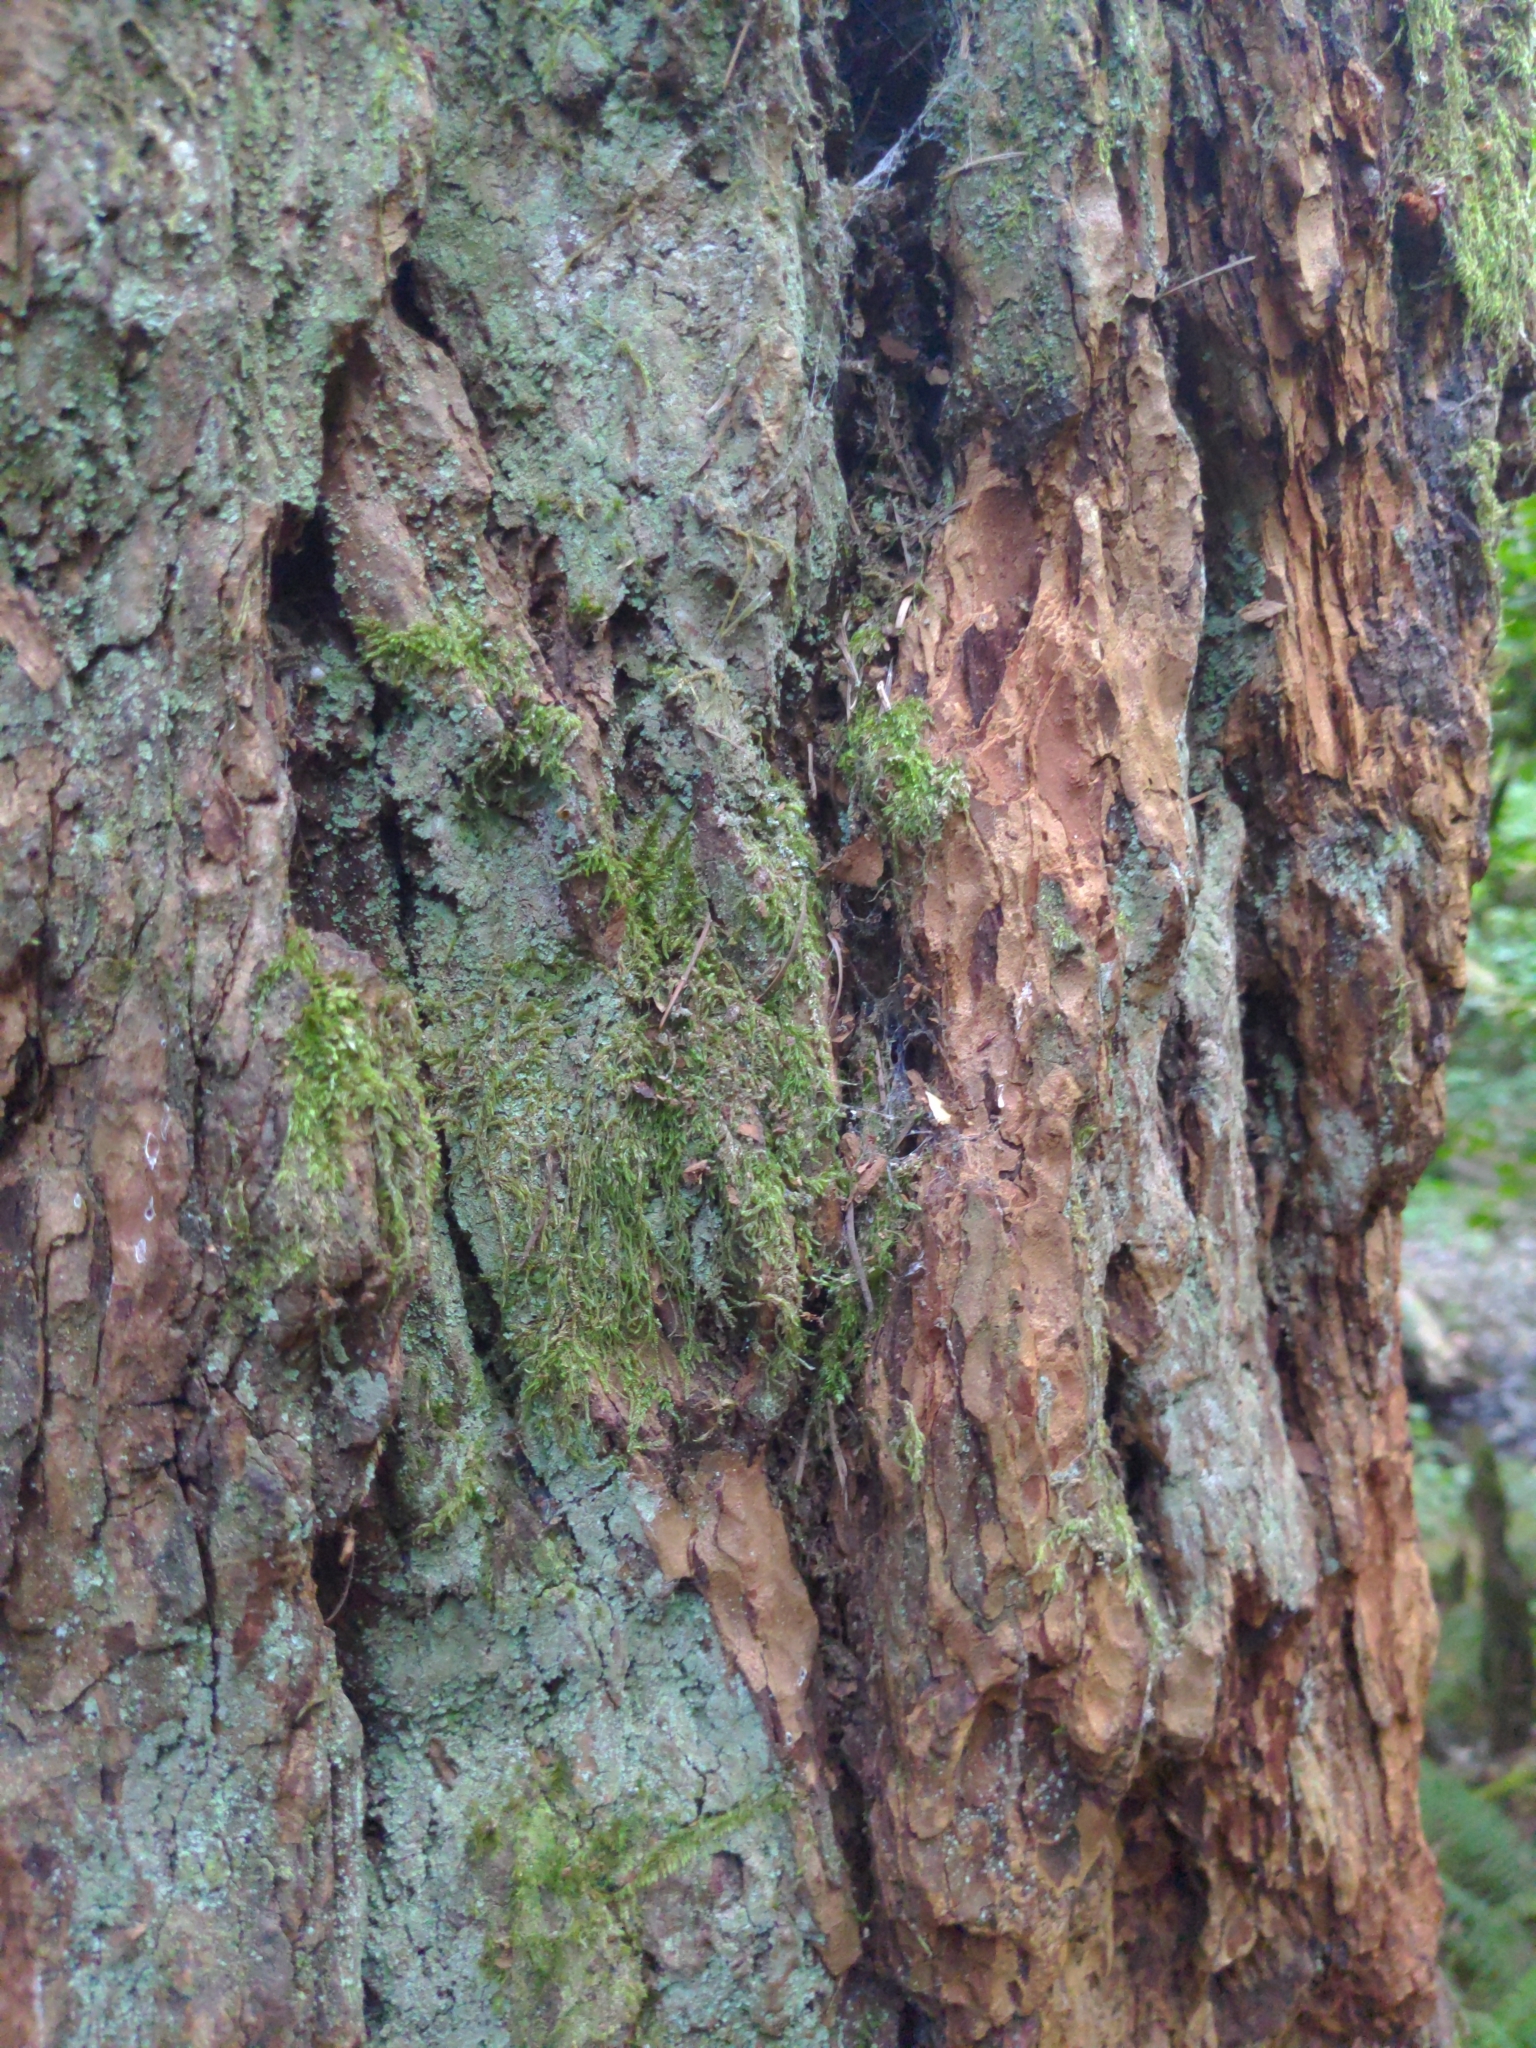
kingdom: Plantae
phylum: Tracheophyta
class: Pinopsida
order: Pinales
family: Pinaceae
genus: Pseudotsuga
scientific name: Pseudotsuga menziesii
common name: Douglas fir
